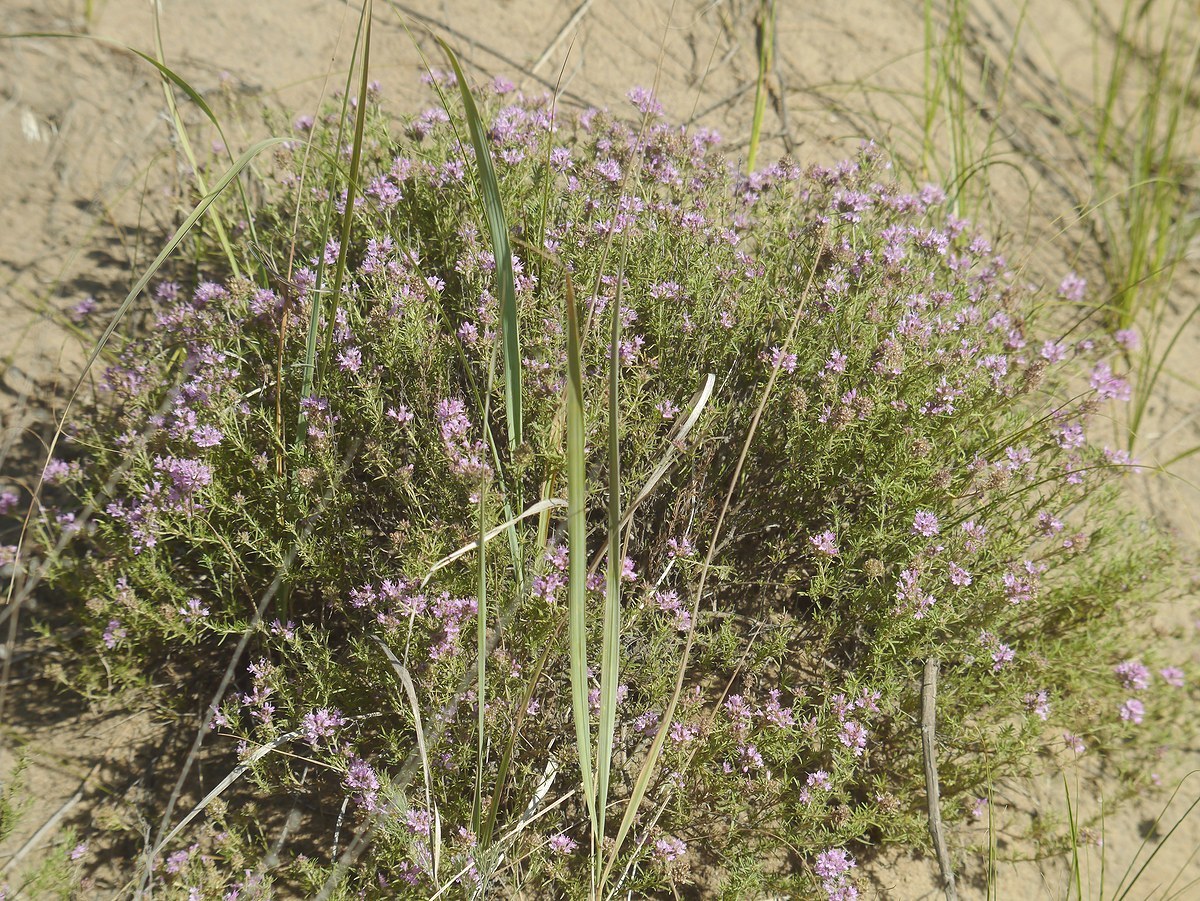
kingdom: Plantae
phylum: Tracheophyta
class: Magnoliopsida
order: Lamiales
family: Lamiaceae
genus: Thymus
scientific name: Thymus pallasianus
